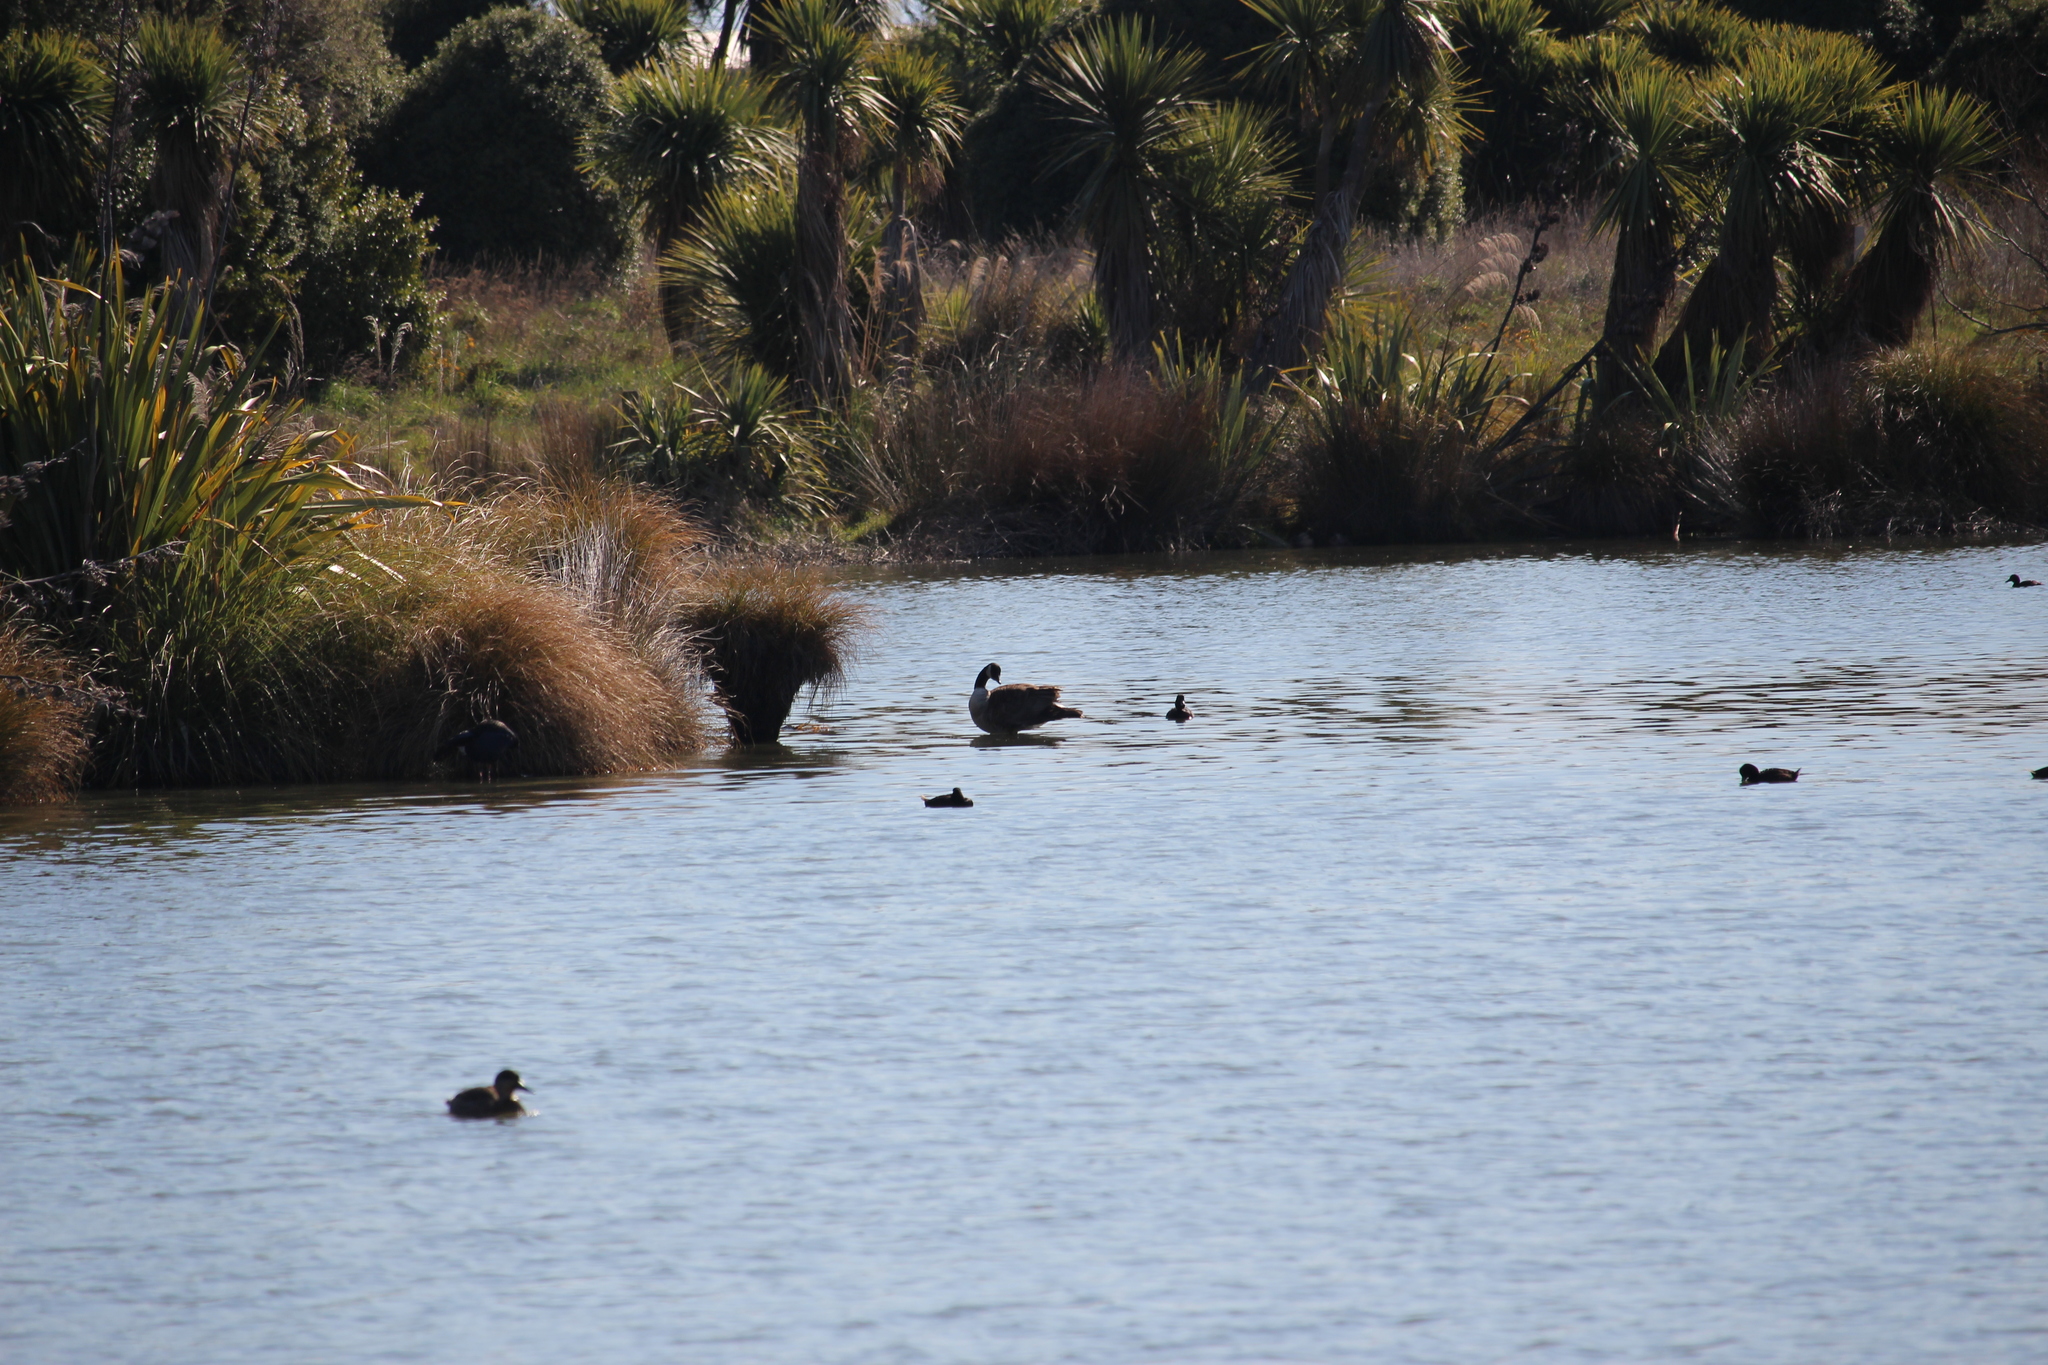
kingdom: Animalia
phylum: Chordata
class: Aves
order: Anseriformes
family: Anatidae
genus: Branta
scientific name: Branta canadensis
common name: Canada goose
